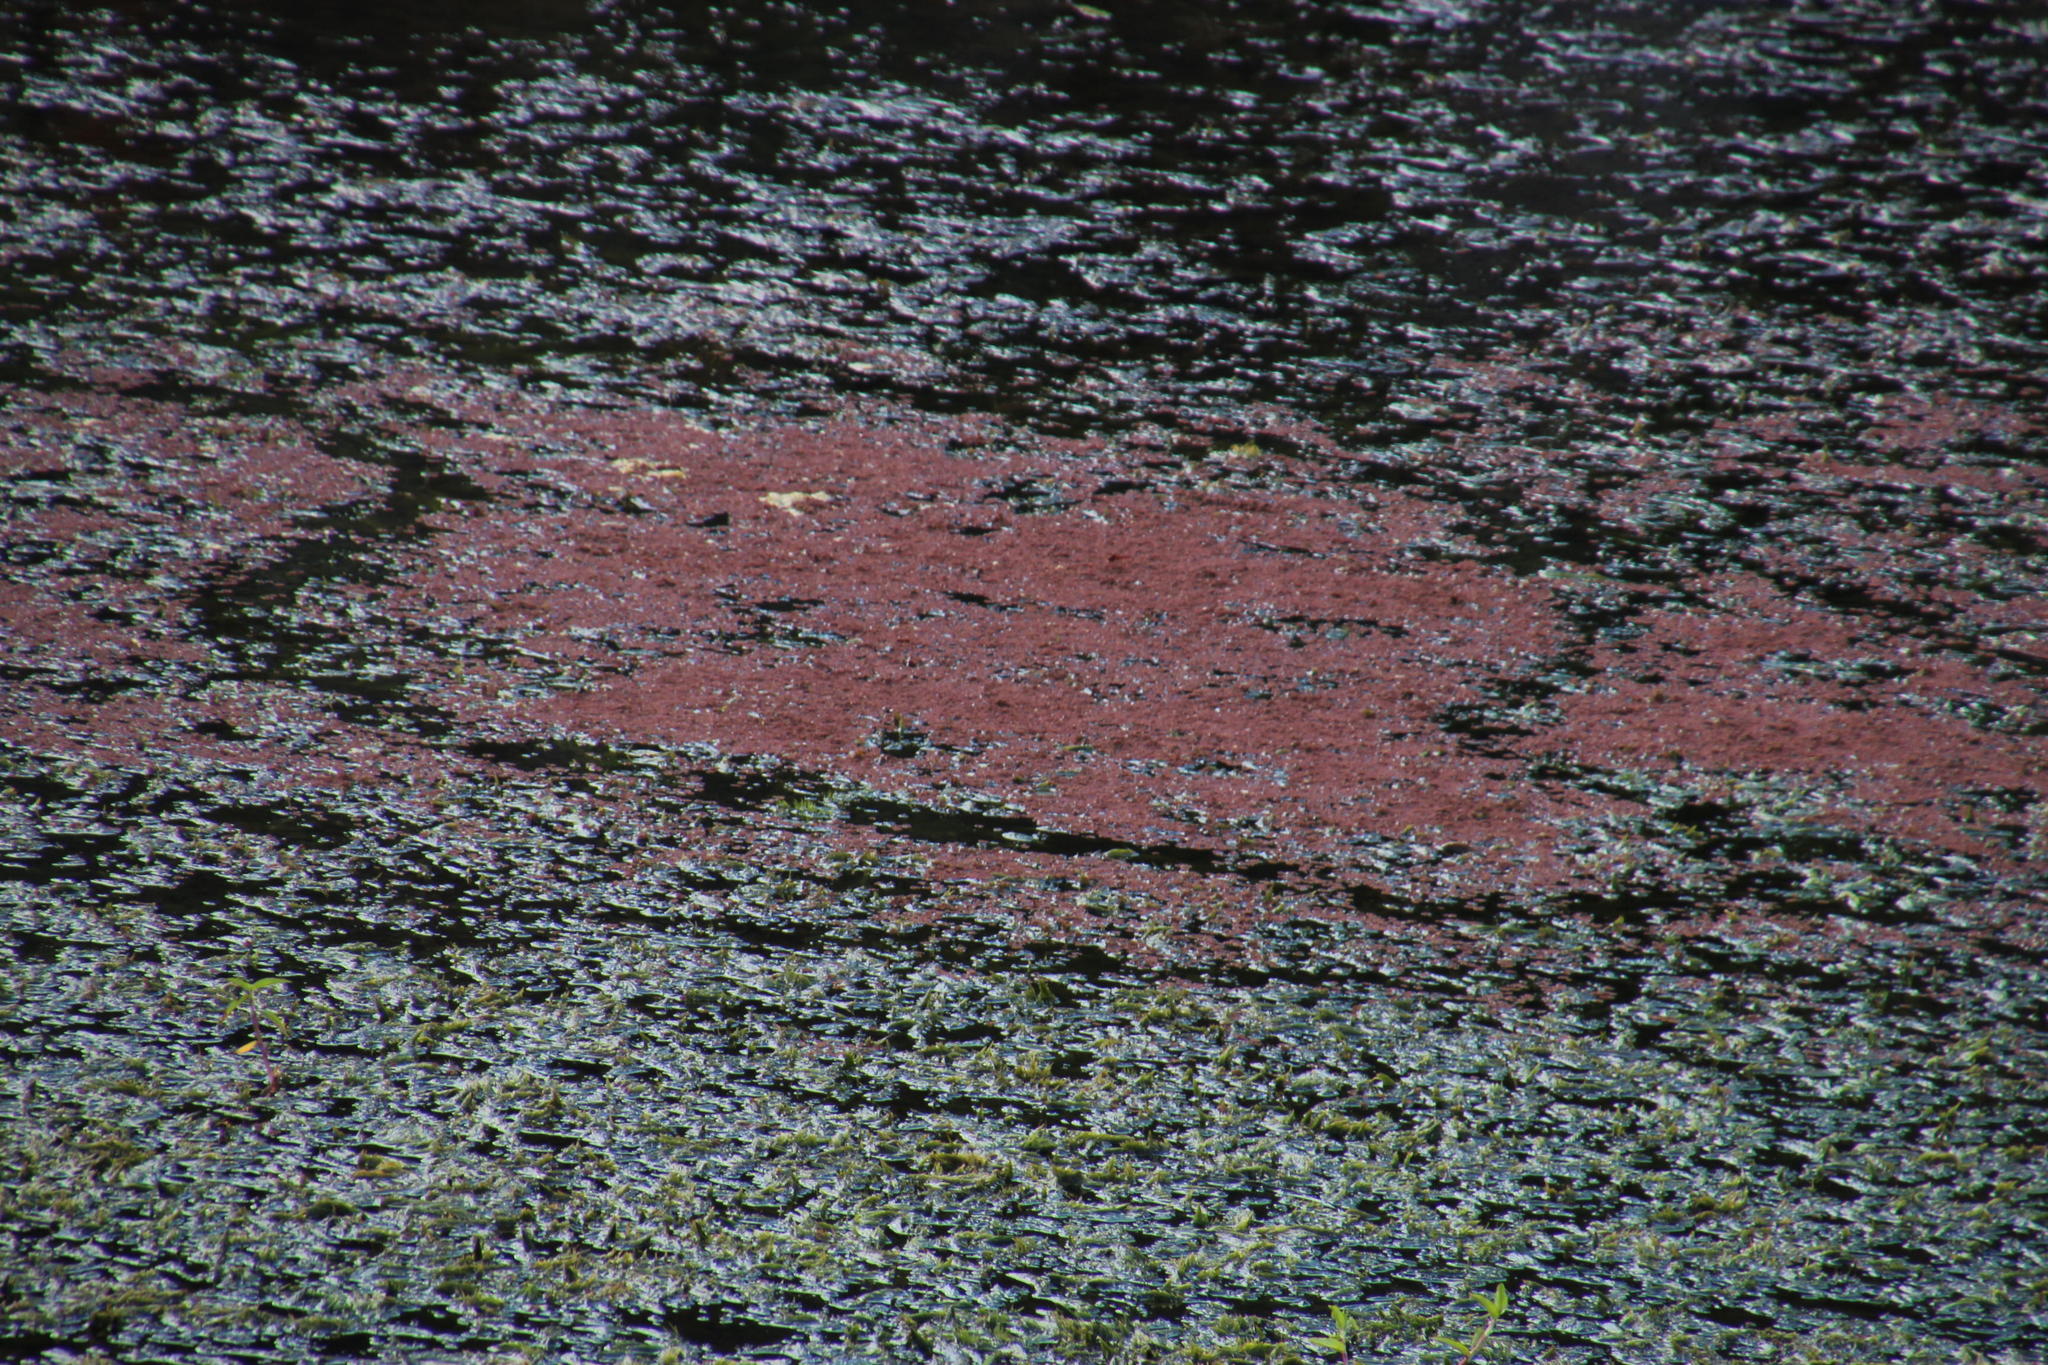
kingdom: Plantae
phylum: Tracheophyta
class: Polypodiopsida
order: Salviniales
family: Salviniaceae
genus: Azolla
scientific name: Azolla filiculoides
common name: Water fern
